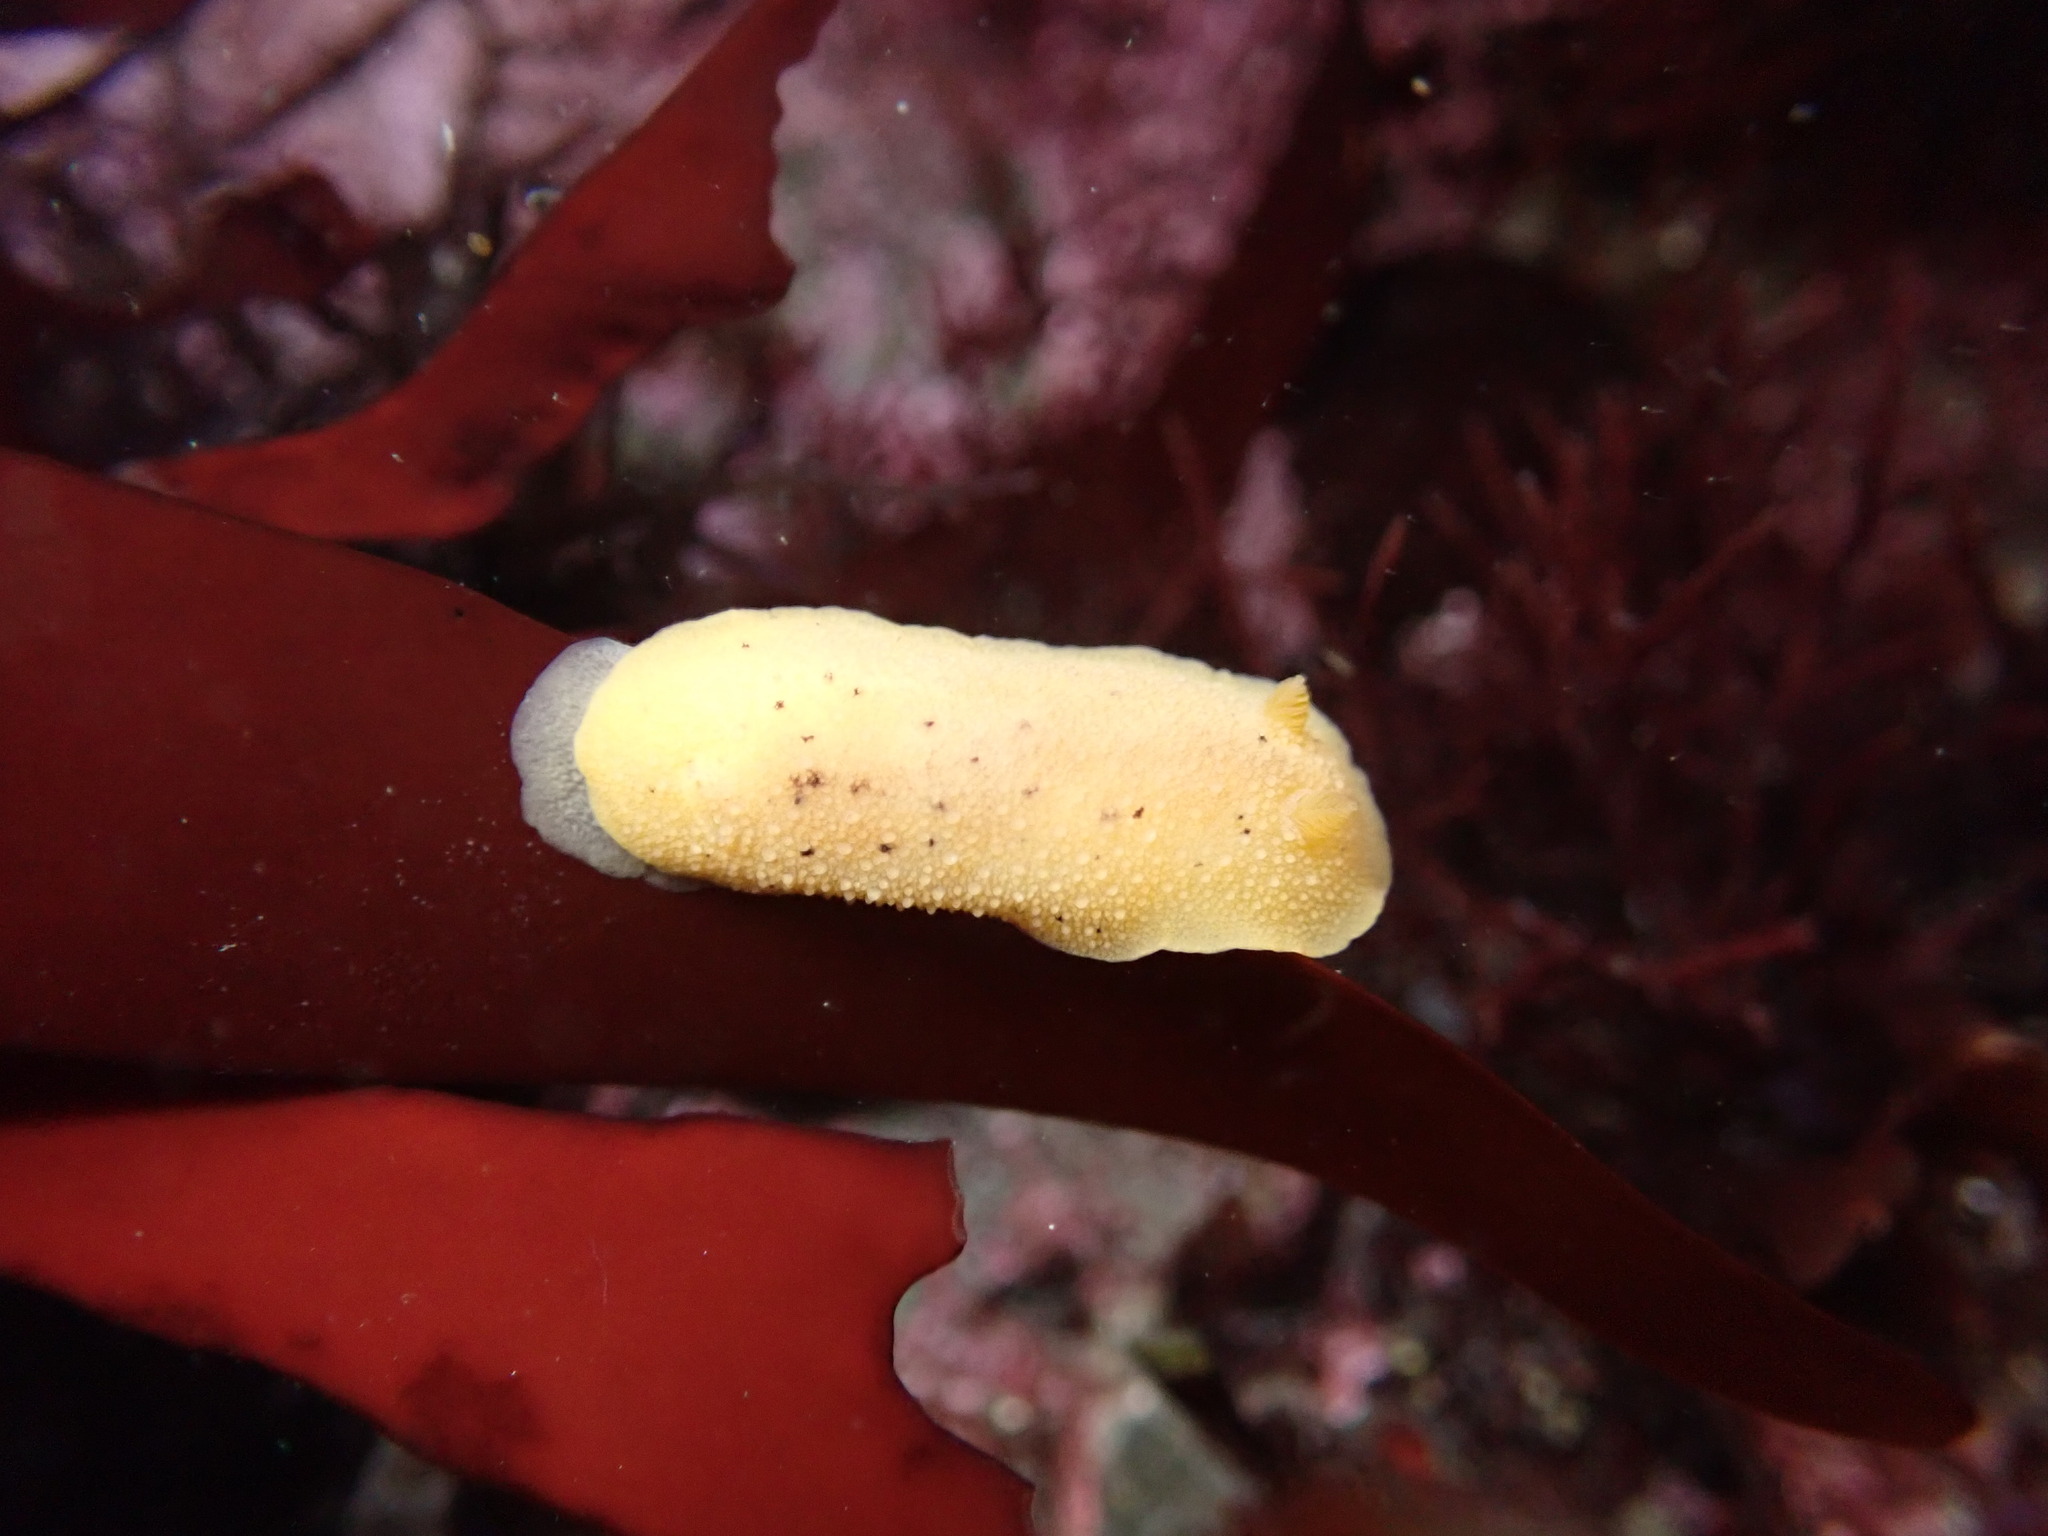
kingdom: Animalia
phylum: Mollusca
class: Gastropoda
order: Nudibranchia
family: Dorididae
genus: Doris
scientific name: Doris montereyensis
